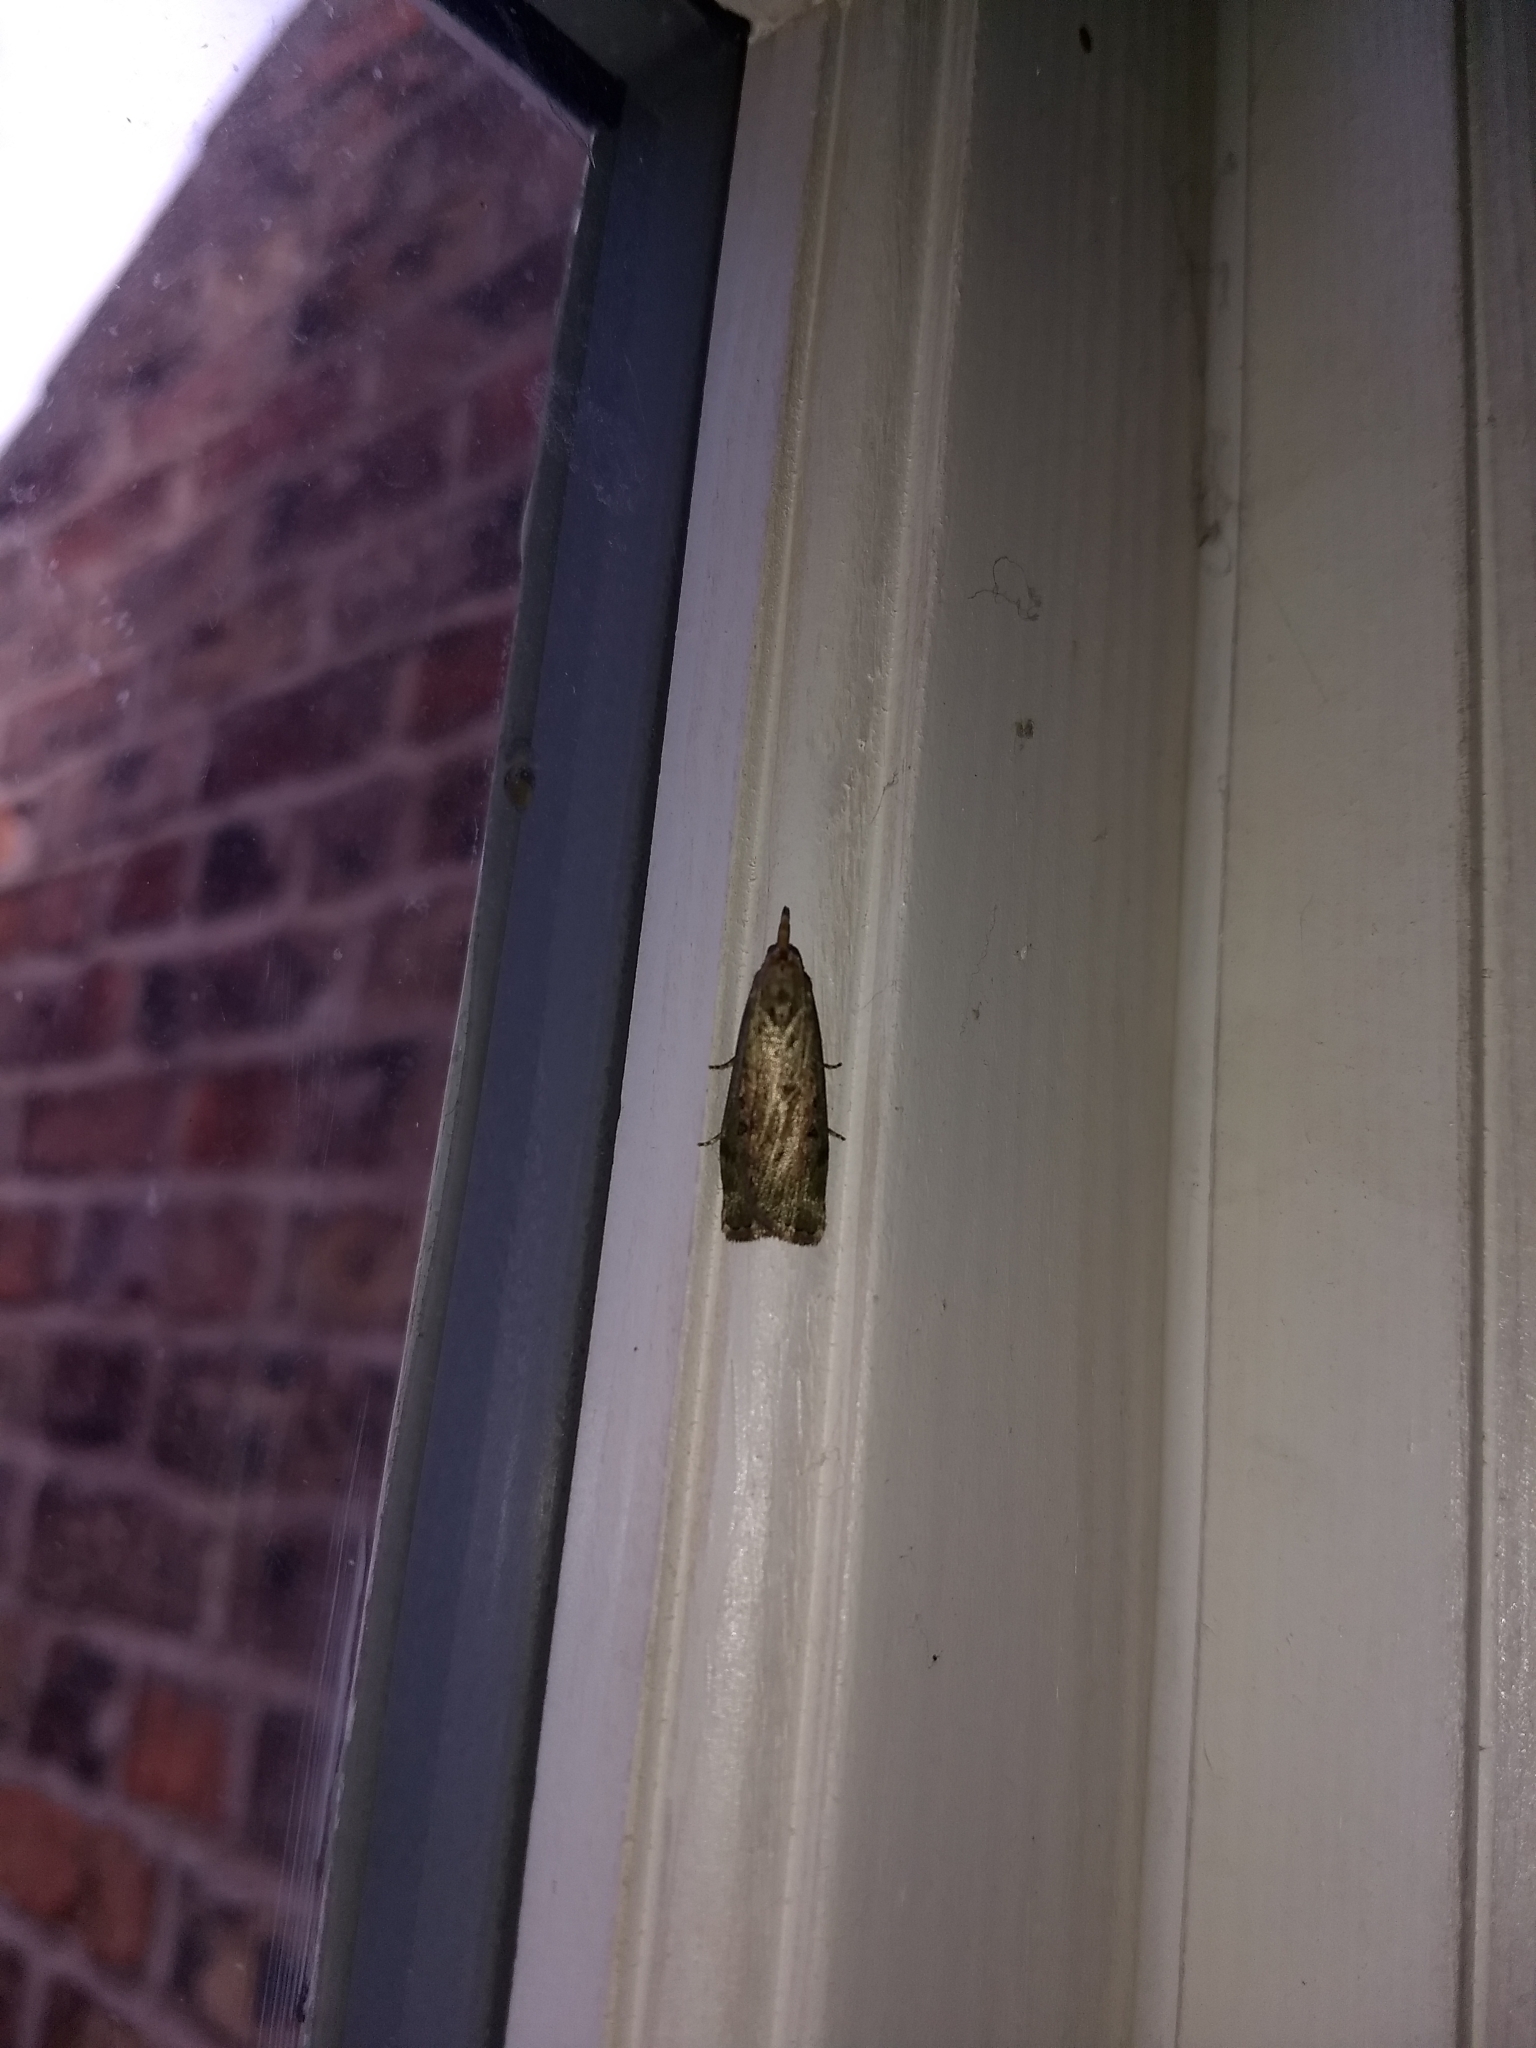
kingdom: Animalia
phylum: Arthropoda
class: Insecta
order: Lepidoptera
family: Pyralidae
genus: Aphomia
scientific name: Aphomia sociella
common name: Bee moth
